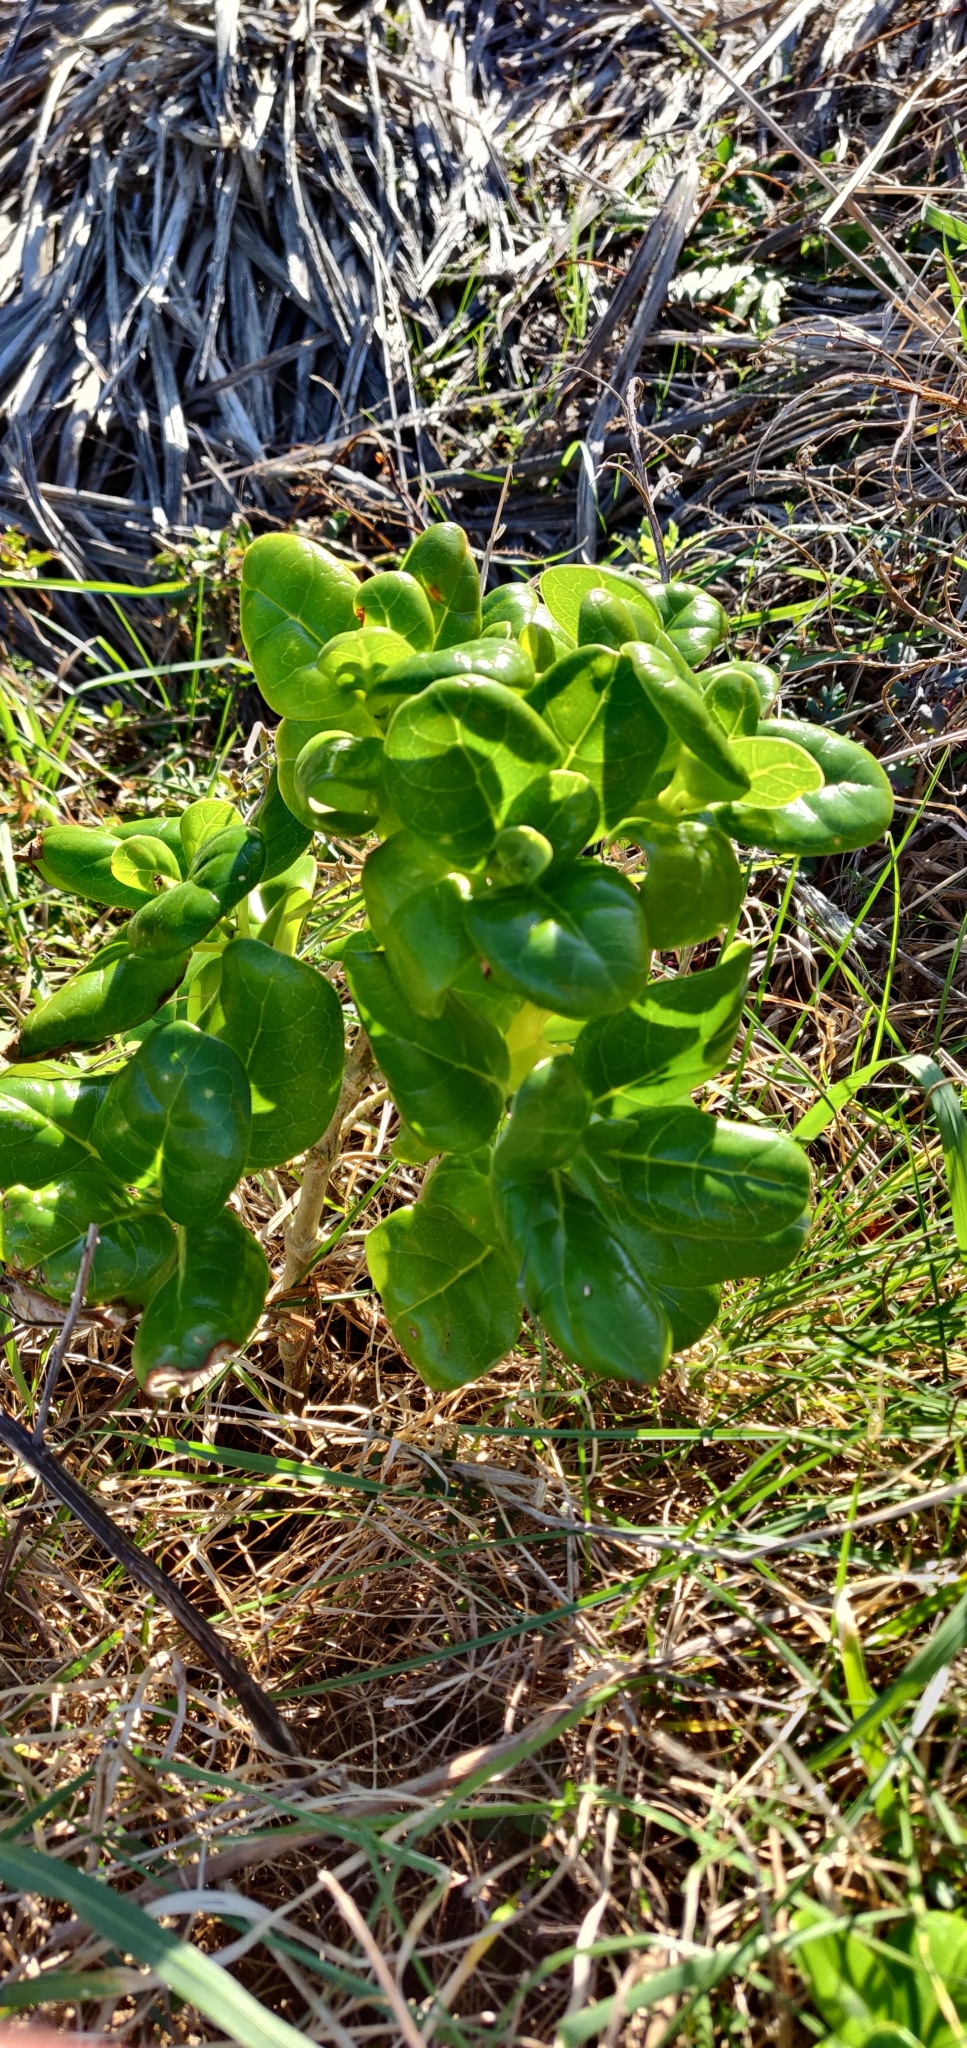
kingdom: Plantae
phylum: Tracheophyta
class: Magnoliopsida
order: Gentianales
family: Rubiaceae
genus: Coprosma
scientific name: Coprosma repens
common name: Tree bedstraw
